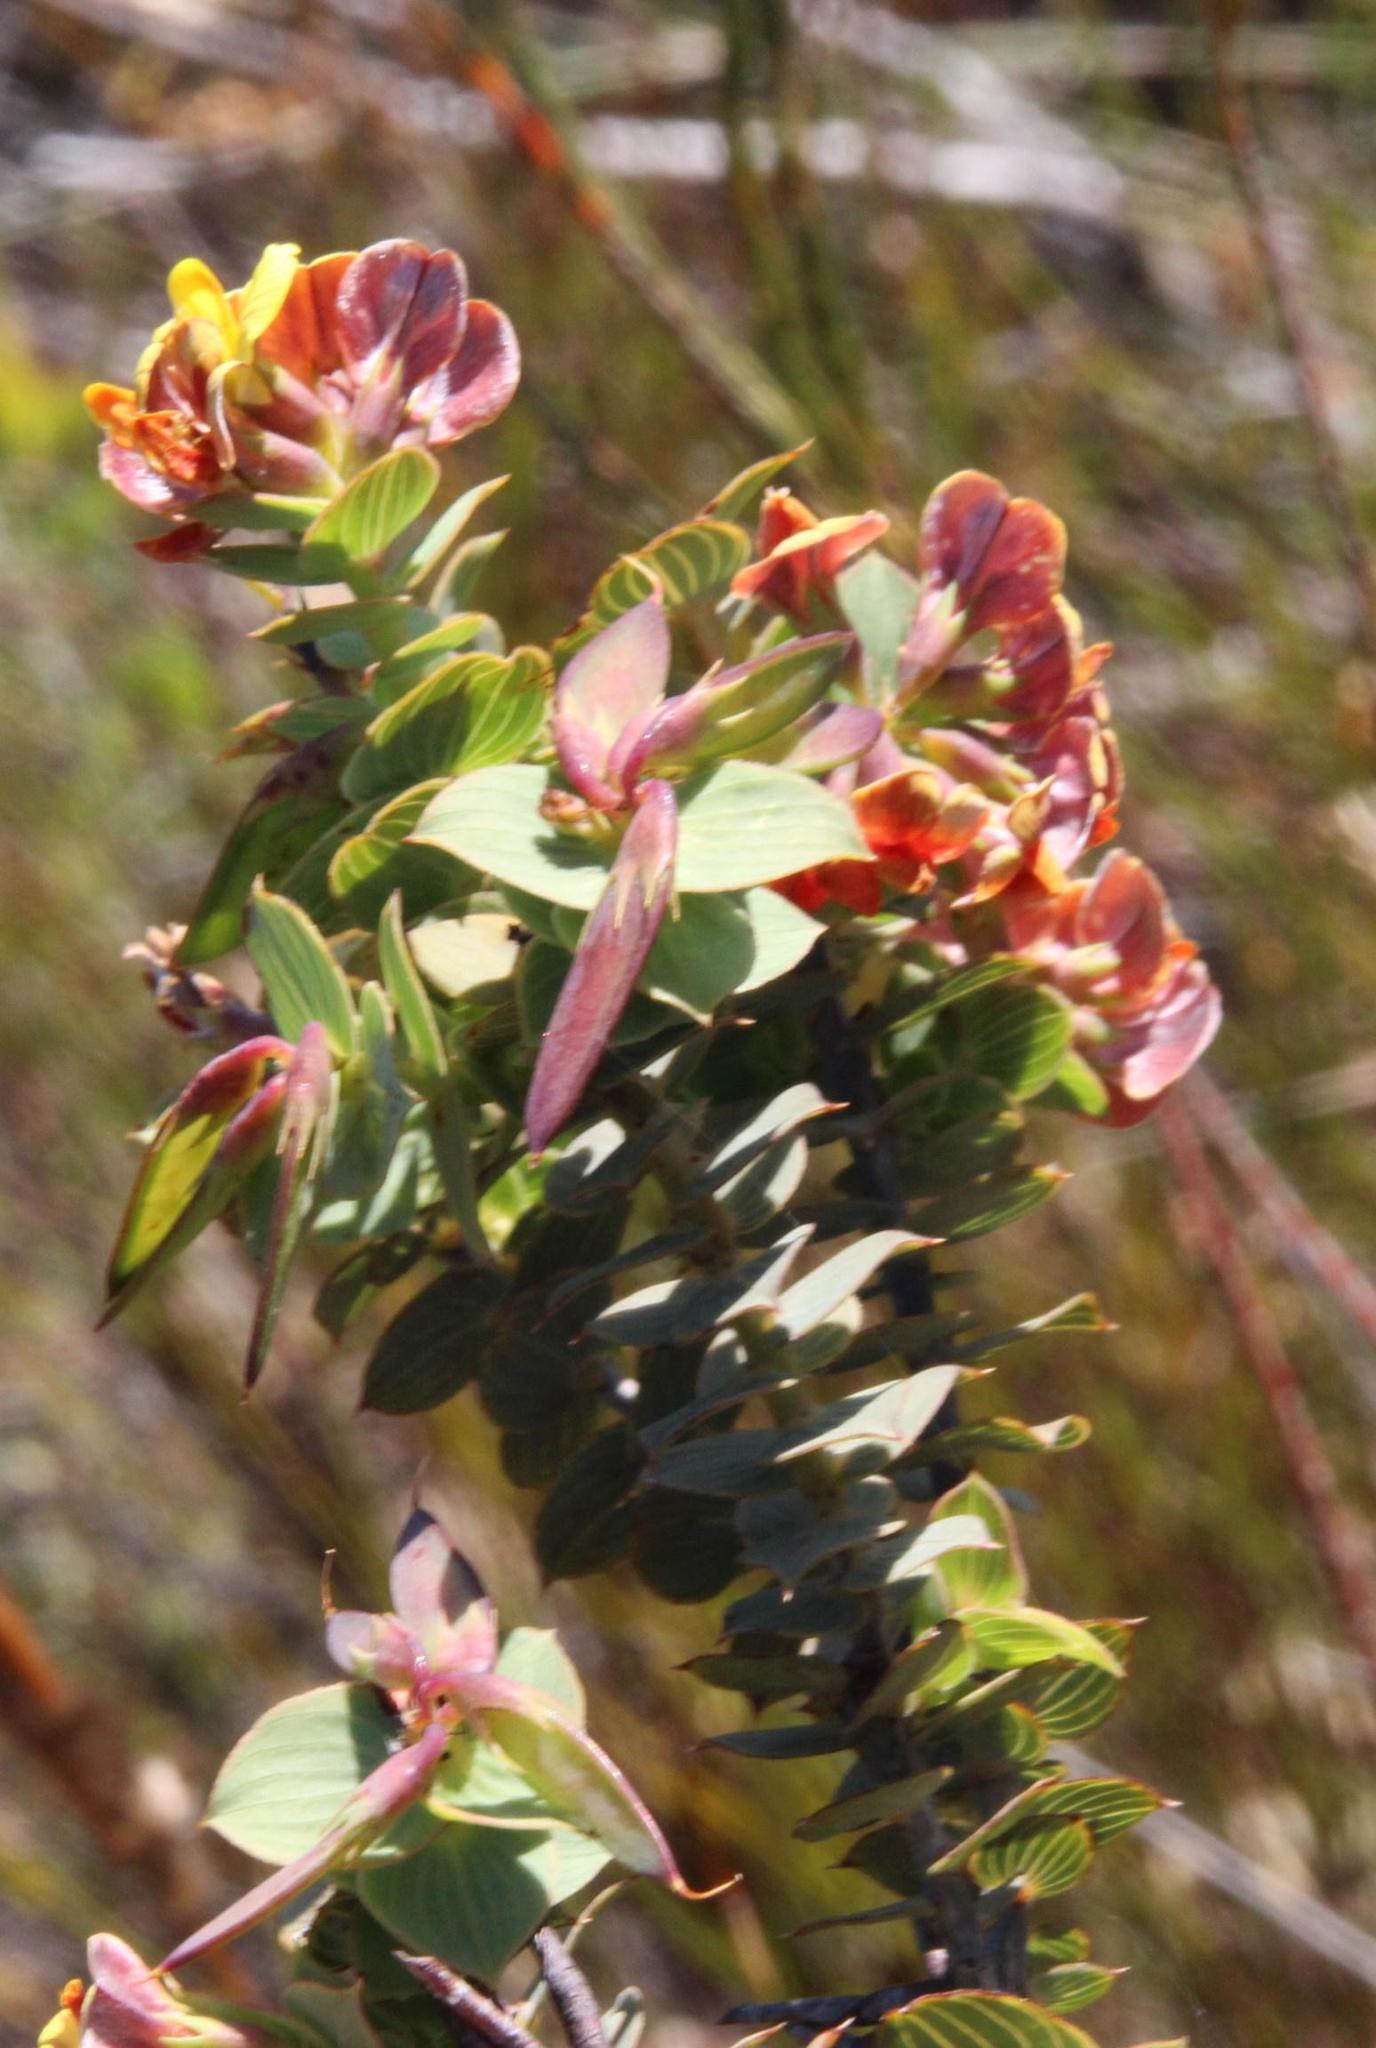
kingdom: Plantae
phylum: Tracheophyta
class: Magnoliopsida
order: Fabales
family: Fabaceae
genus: Aspalathus
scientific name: Aspalathus crenata
